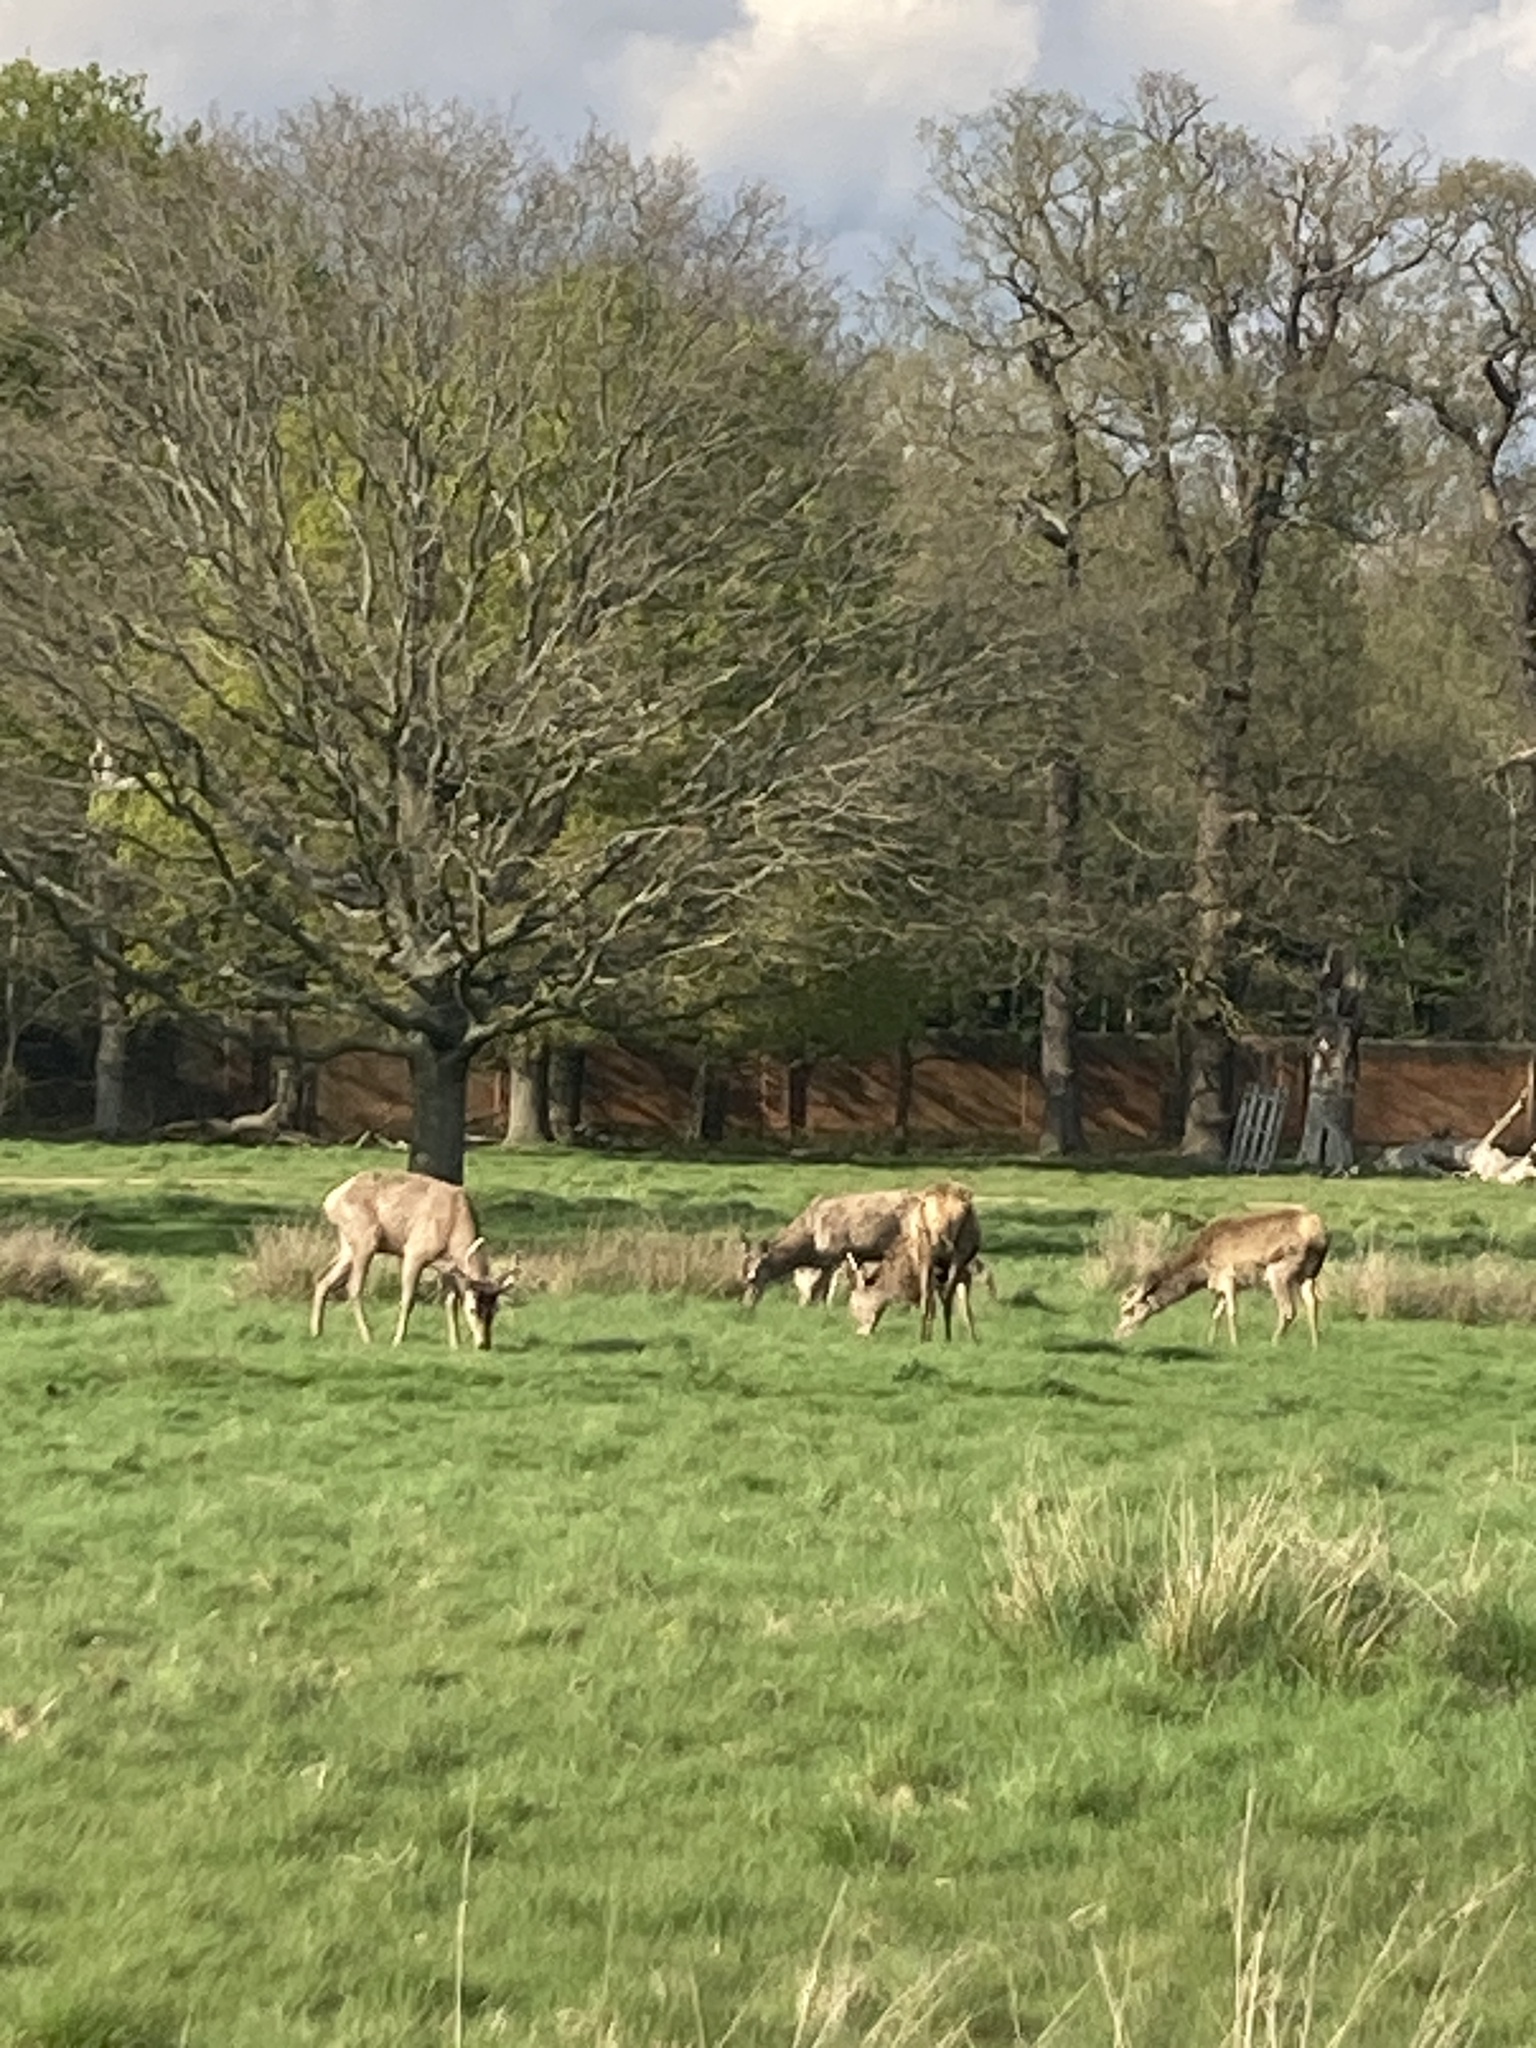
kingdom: Animalia
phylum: Chordata
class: Mammalia
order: Artiodactyla
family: Cervidae
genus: Cervus
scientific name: Cervus elaphus
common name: Red deer
